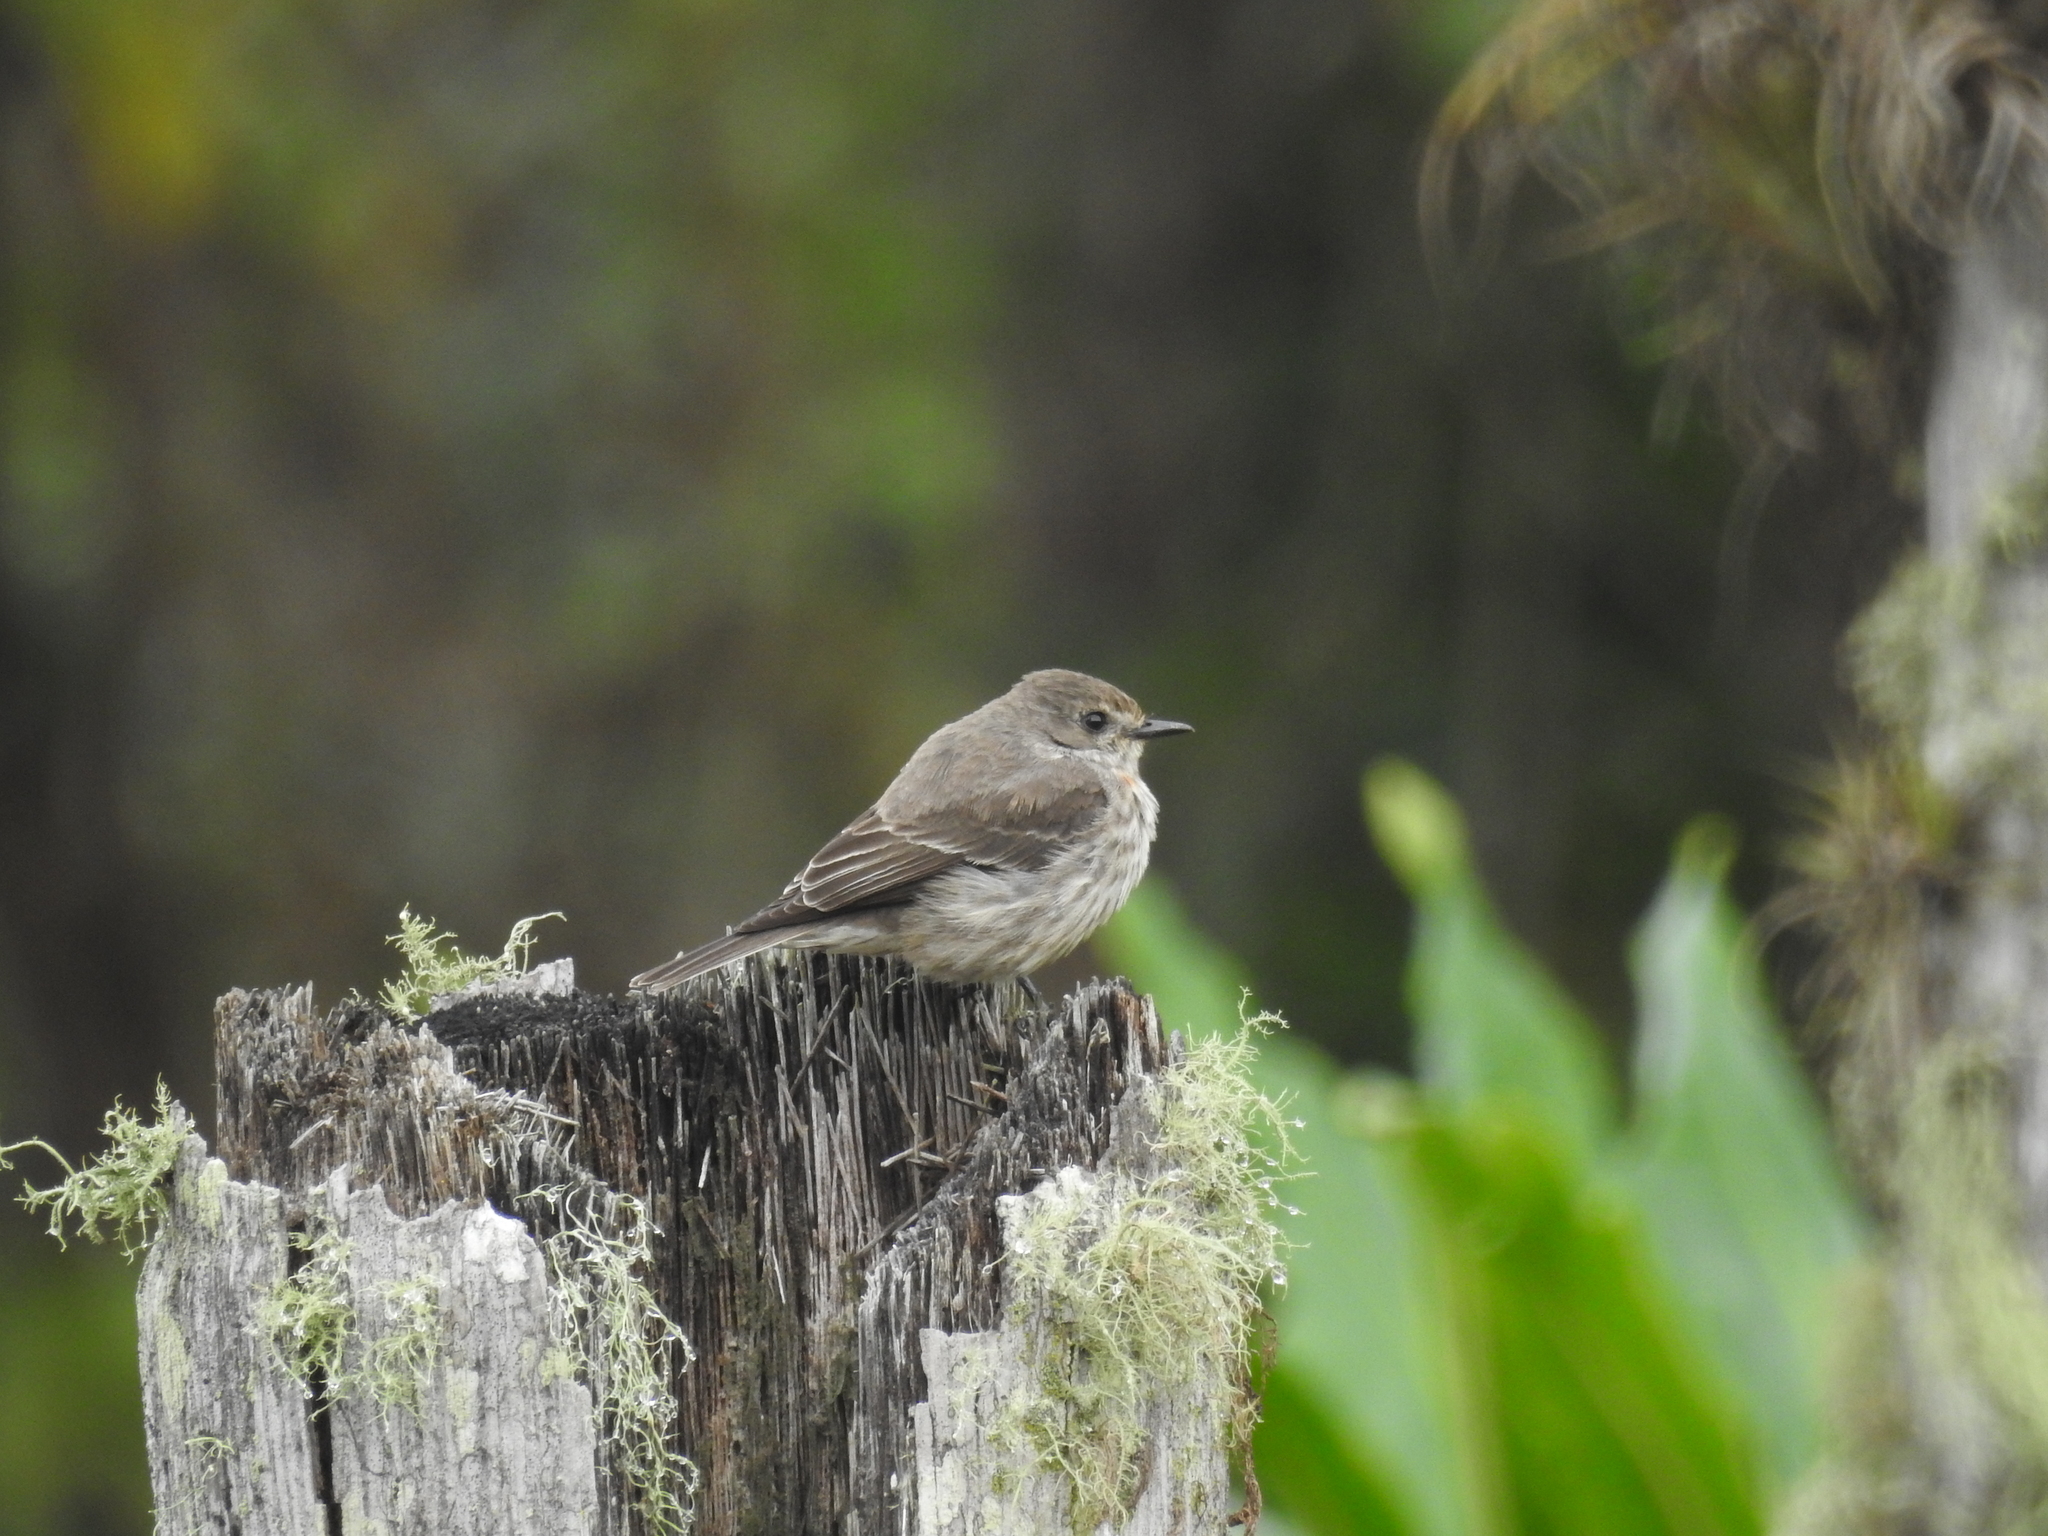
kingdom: Animalia
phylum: Chordata
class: Aves
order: Passeriformes
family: Tyrannidae
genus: Pyrocephalus
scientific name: Pyrocephalus rubinus
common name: Vermilion flycatcher
